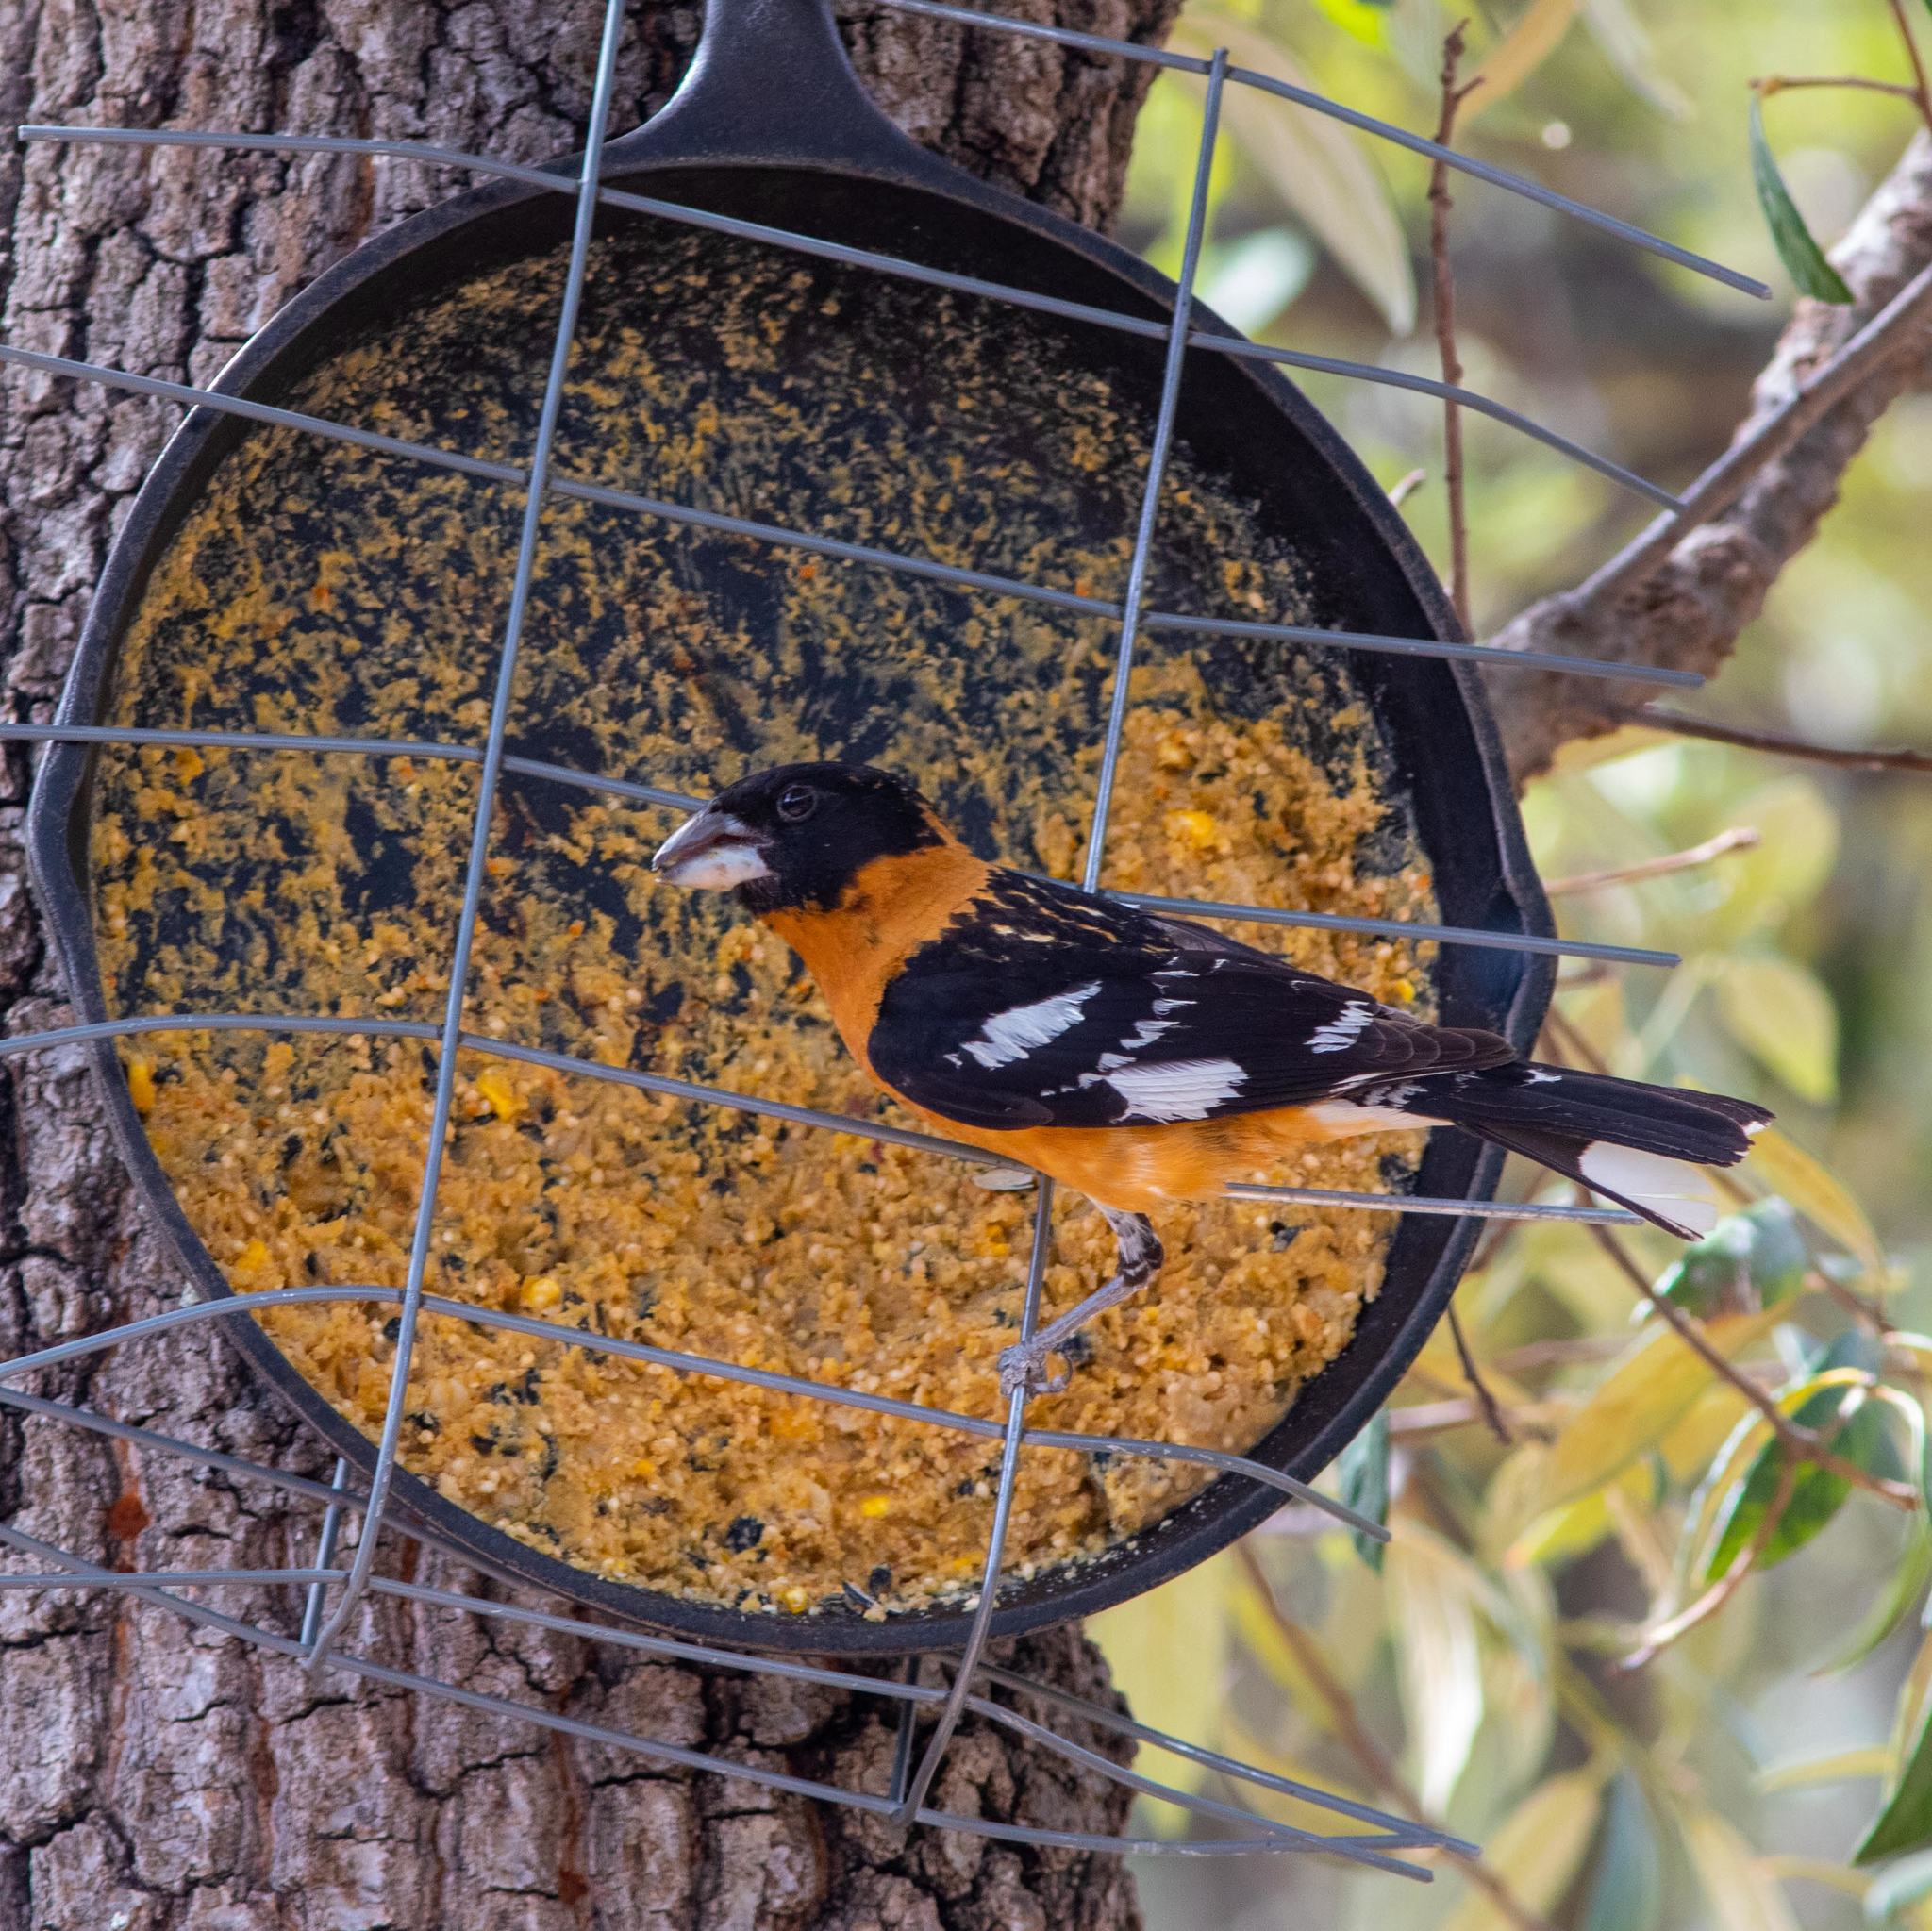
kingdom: Animalia
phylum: Chordata
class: Aves
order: Passeriformes
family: Cardinalidae
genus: Pheucticus
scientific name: Pheucticus melanocephalus
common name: Black-headed grosbeak
